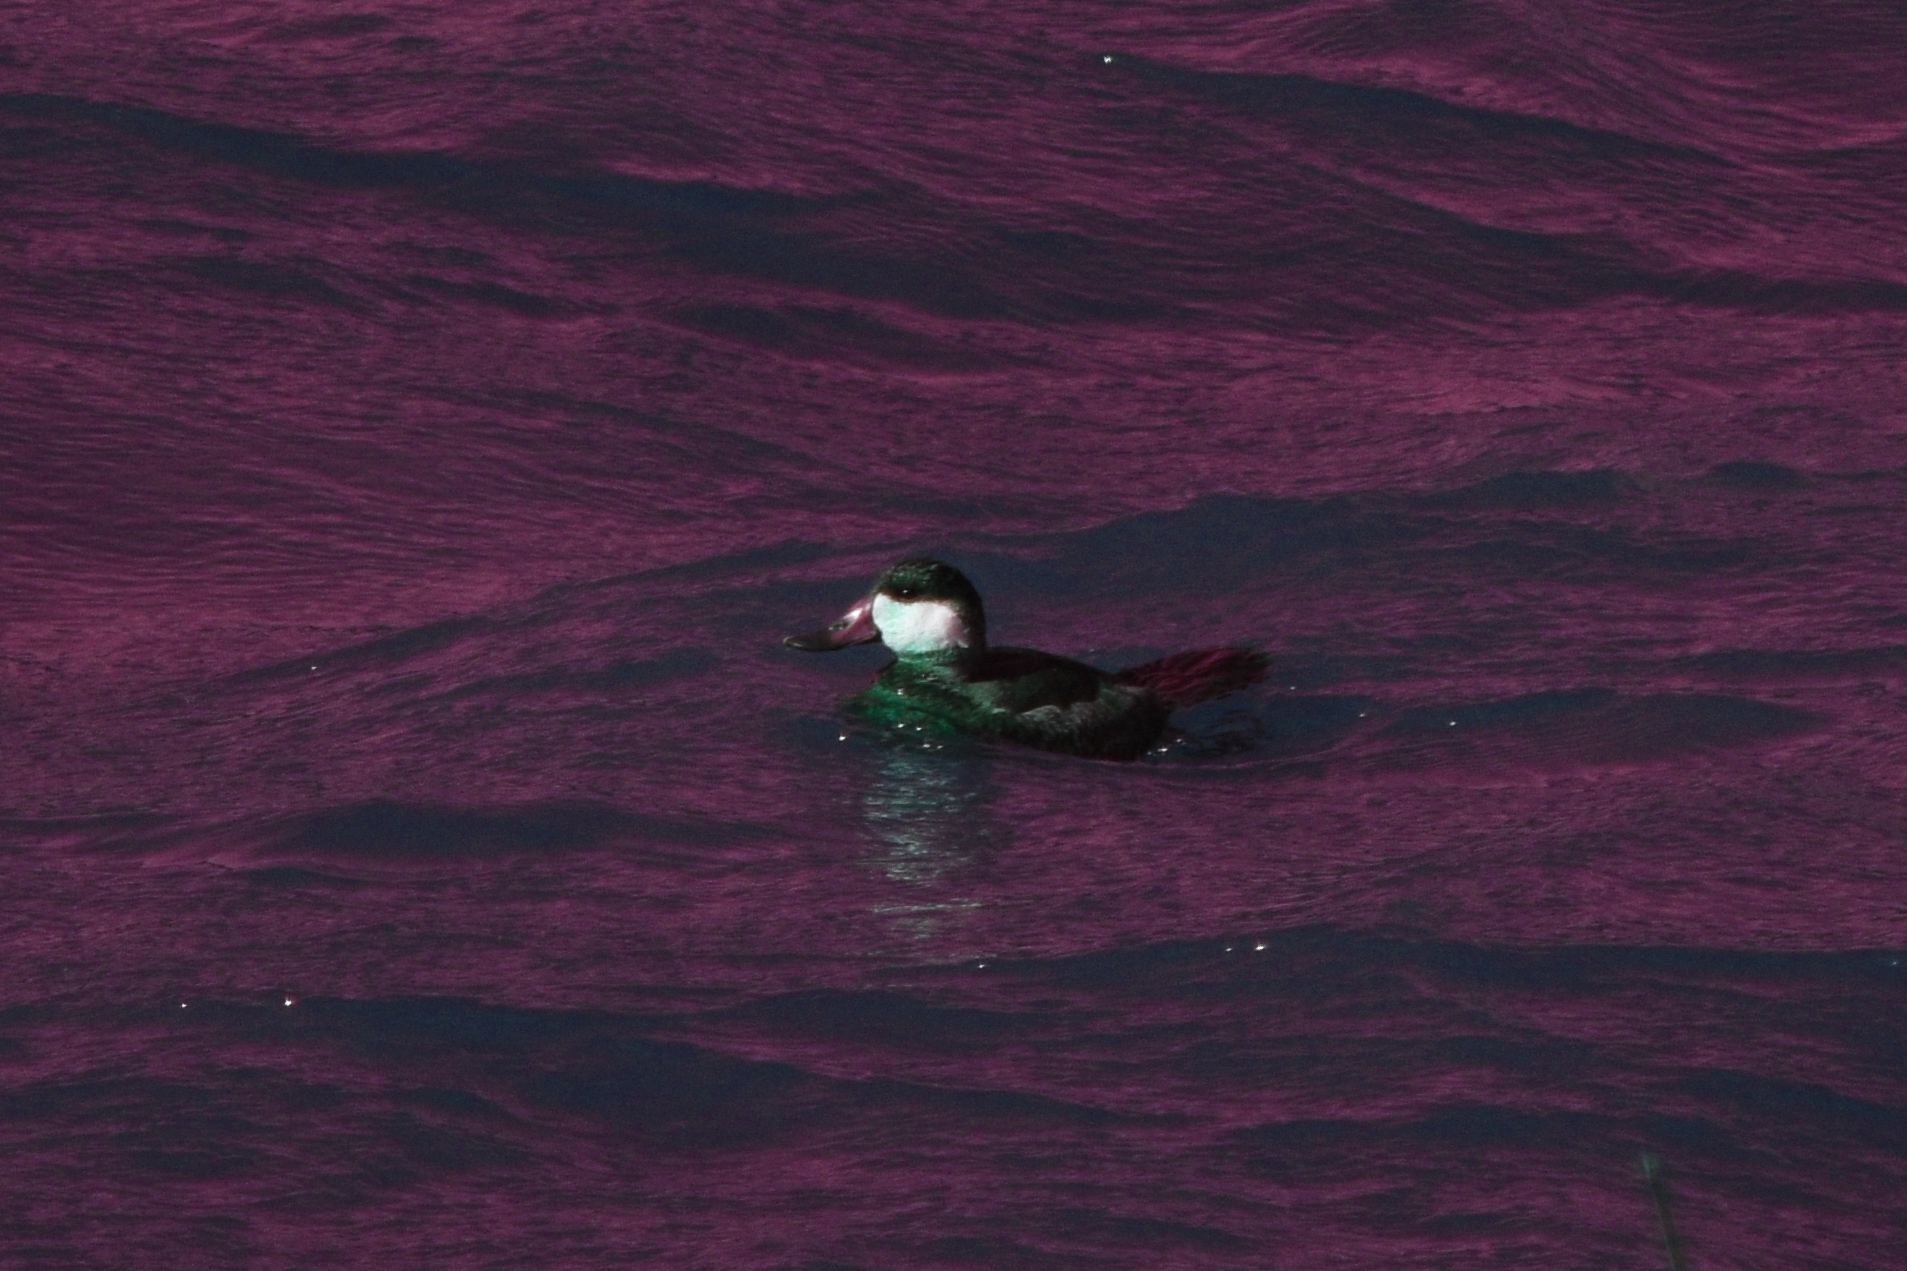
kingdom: Animalia
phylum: Chordata
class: Aves
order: Anseriformes
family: Anatidae
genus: Oxyura
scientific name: Oxyura jamaicensis
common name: Ruddy duck
